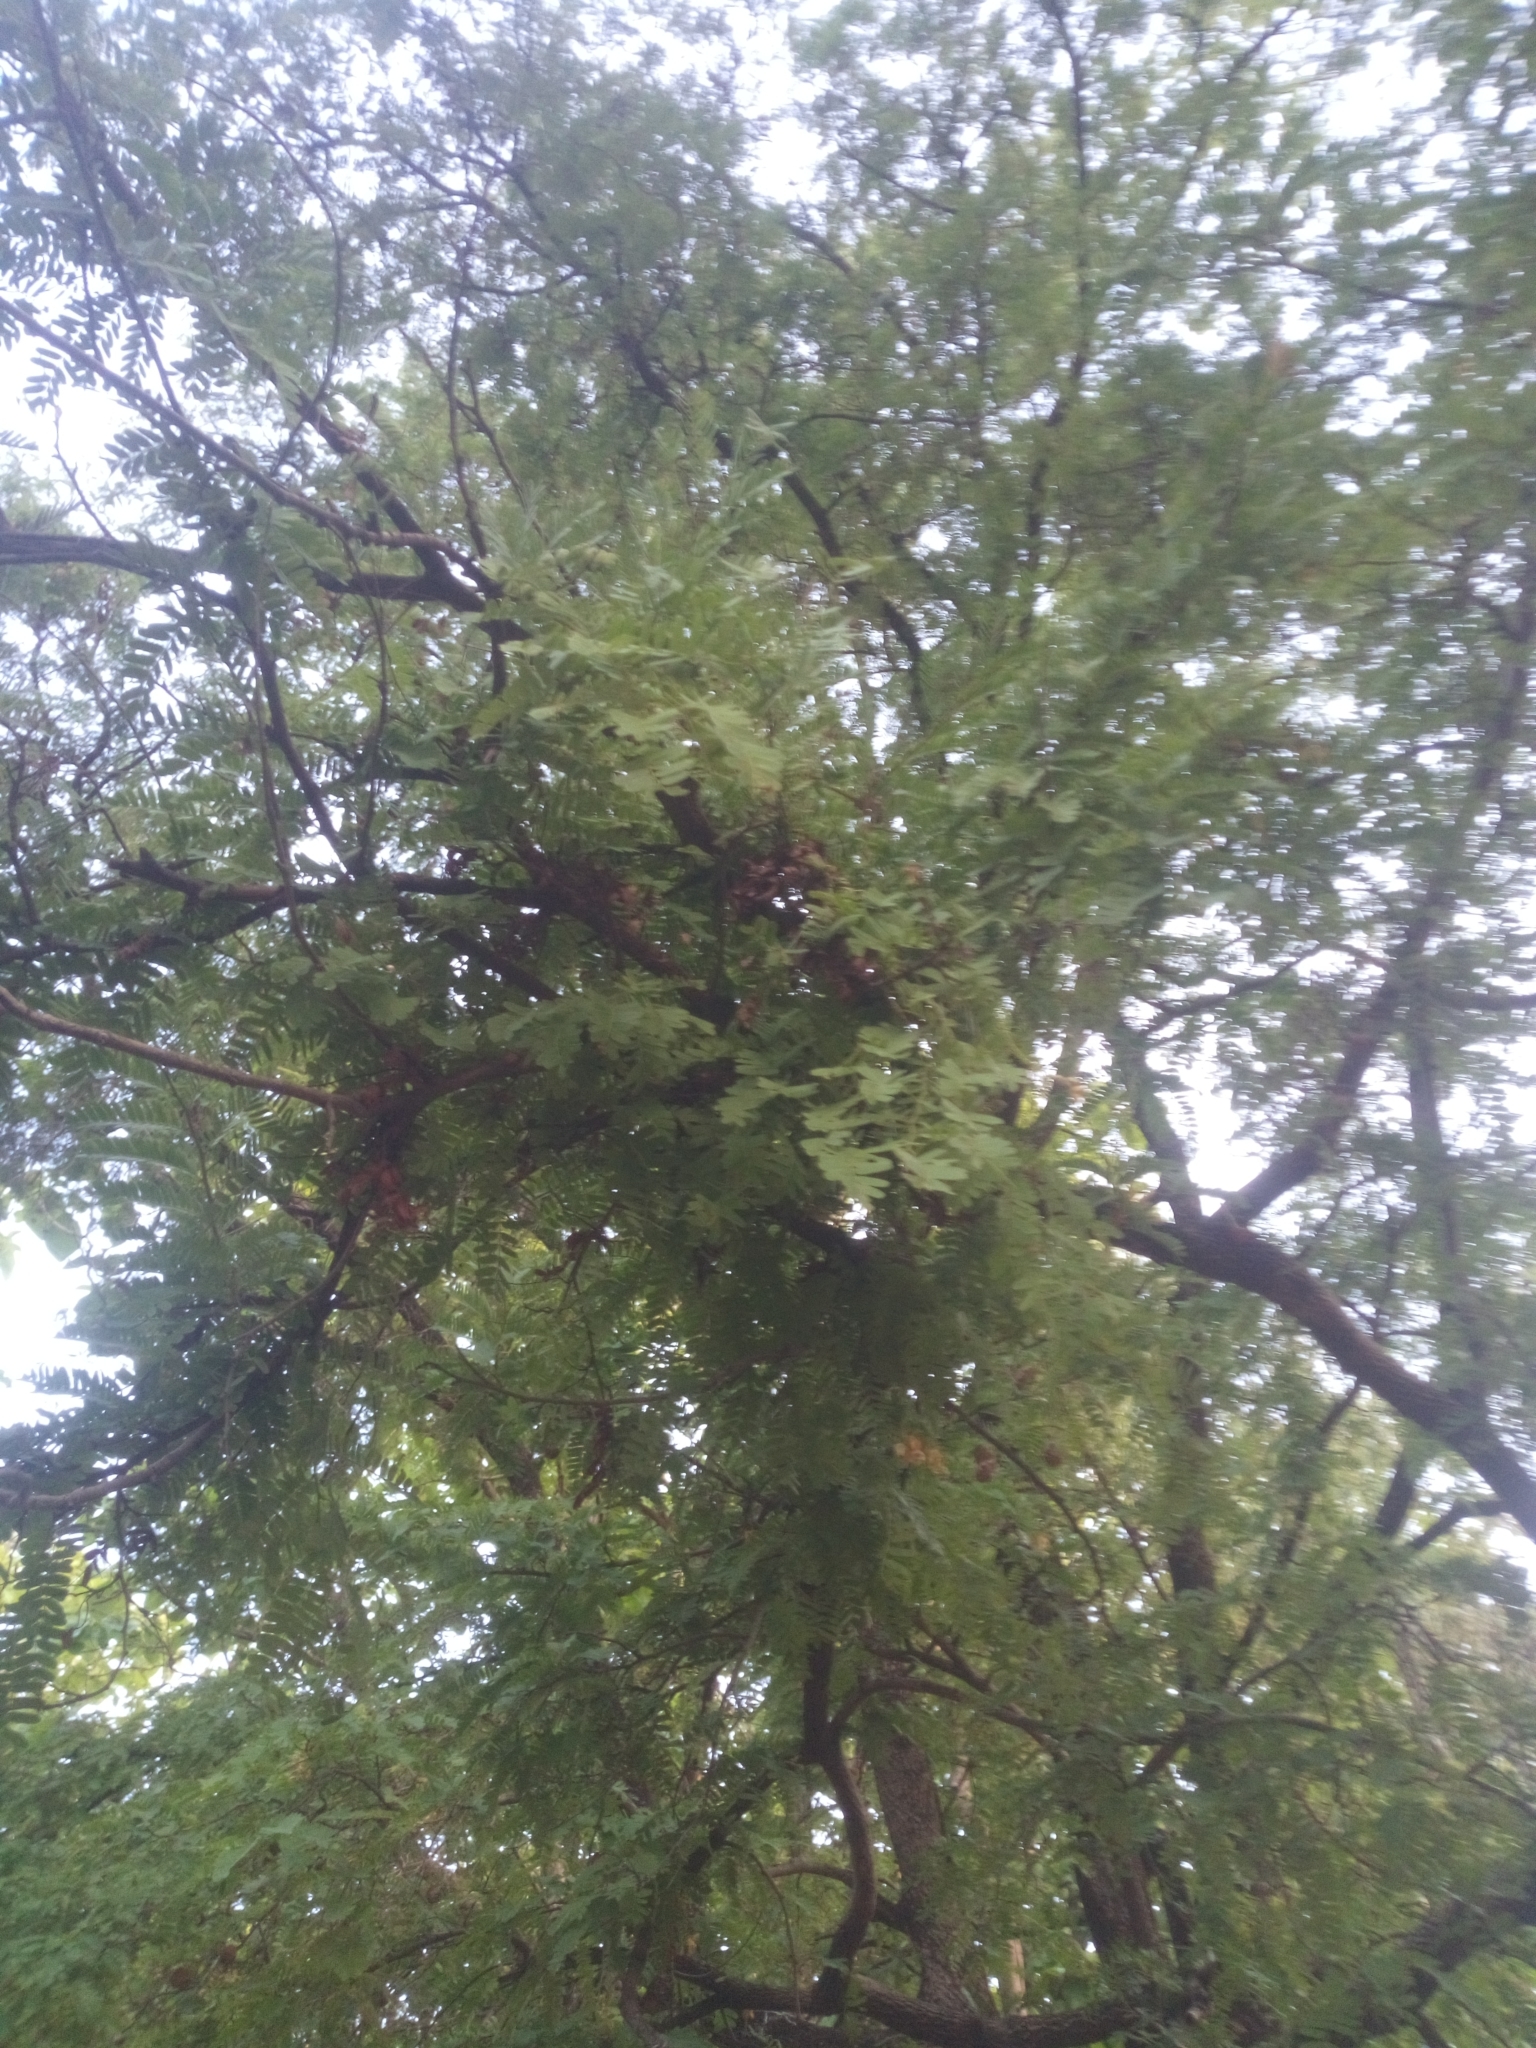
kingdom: Plantae
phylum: Tracheophyta
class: Magnoliopsida
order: Fabales
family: Fabaceae
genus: Tamarindus
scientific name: Tamarindus indica
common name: Tamarind
